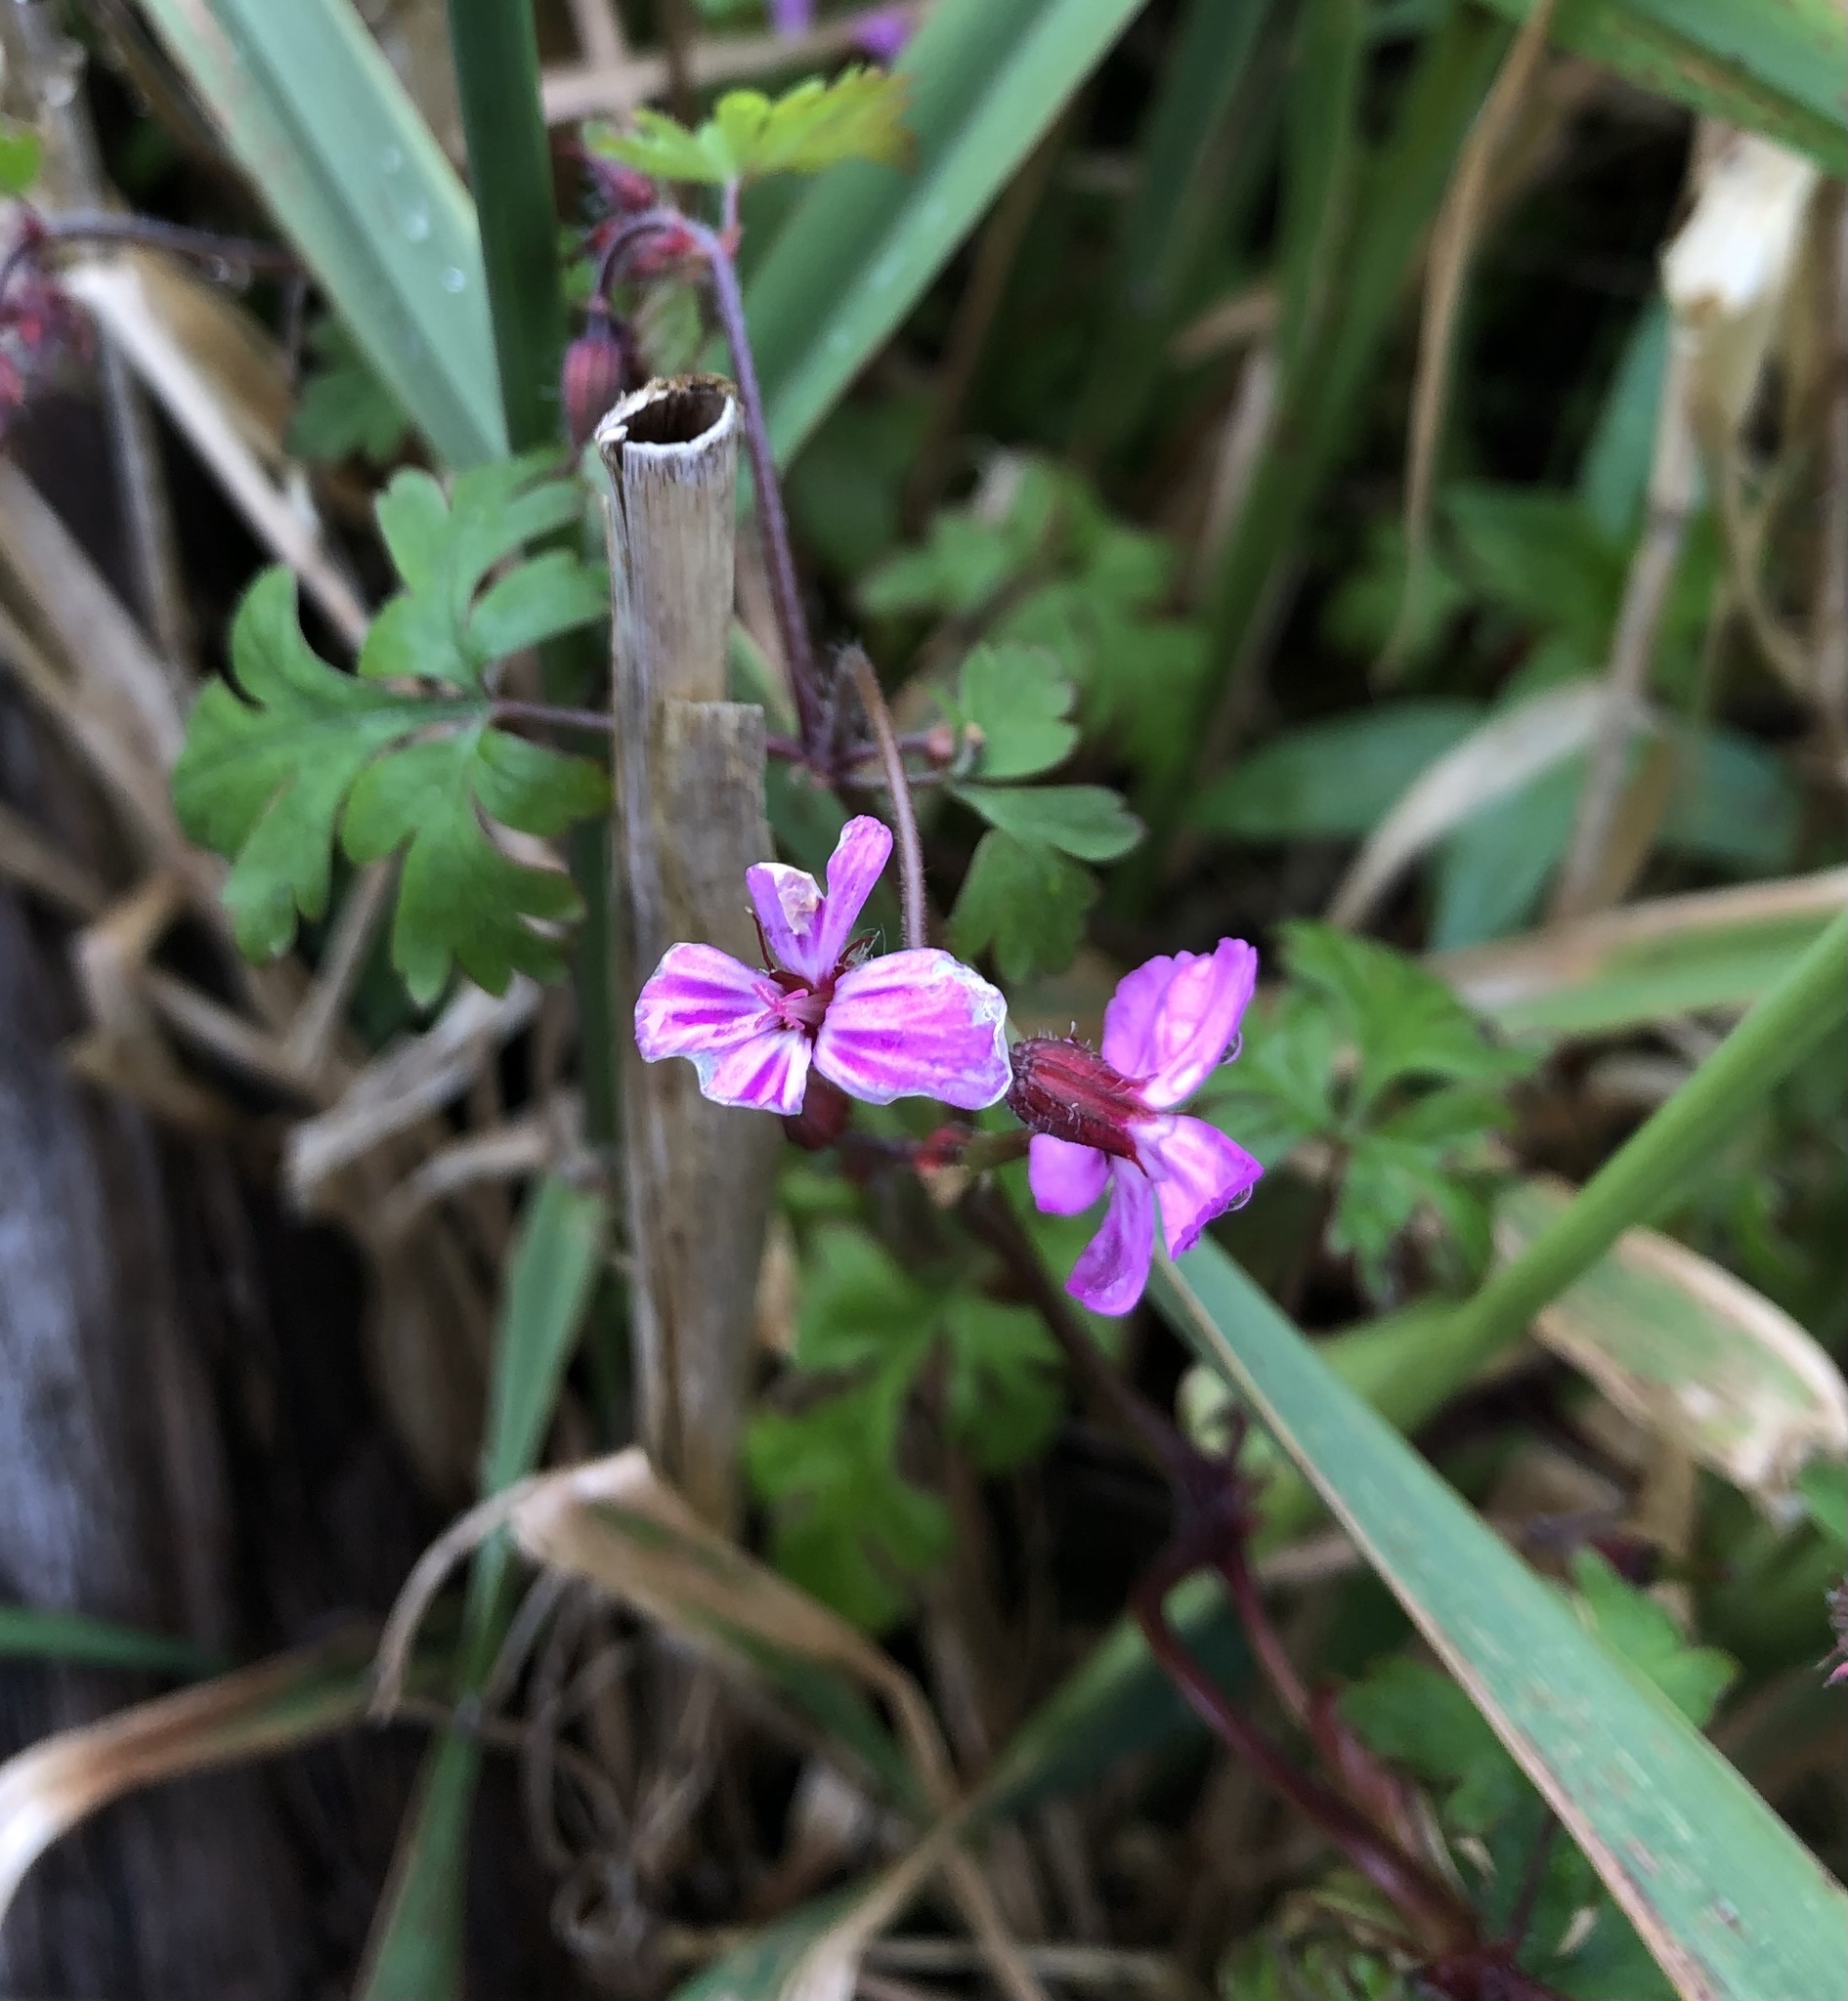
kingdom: Plantae
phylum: Tracheophyta
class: Magnoliopsida
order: Geraniales
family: Geraniaceae
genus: Geranium
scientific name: Geranium robertianum
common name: Herb-robert
